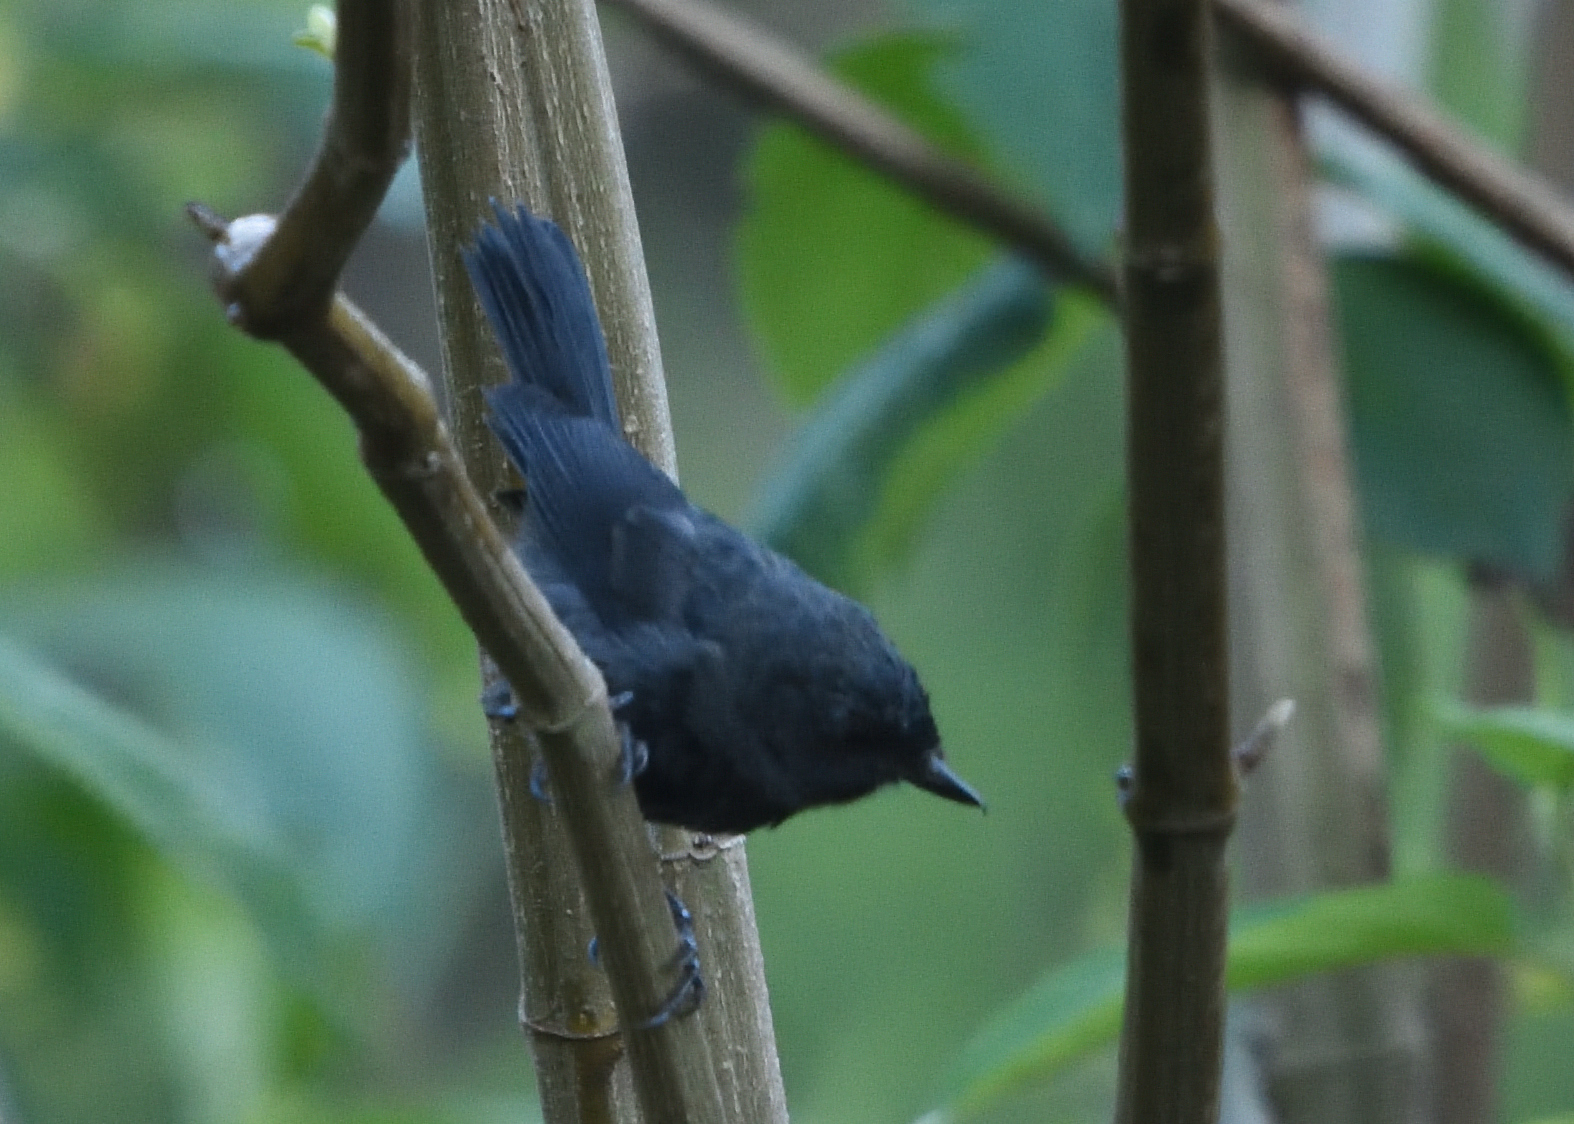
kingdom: Animalia
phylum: Chordata
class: Aves
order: Passeriformes
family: Thraupidae
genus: Diglossa
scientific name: Diglossa humeralis
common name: Black flowerpiercer
